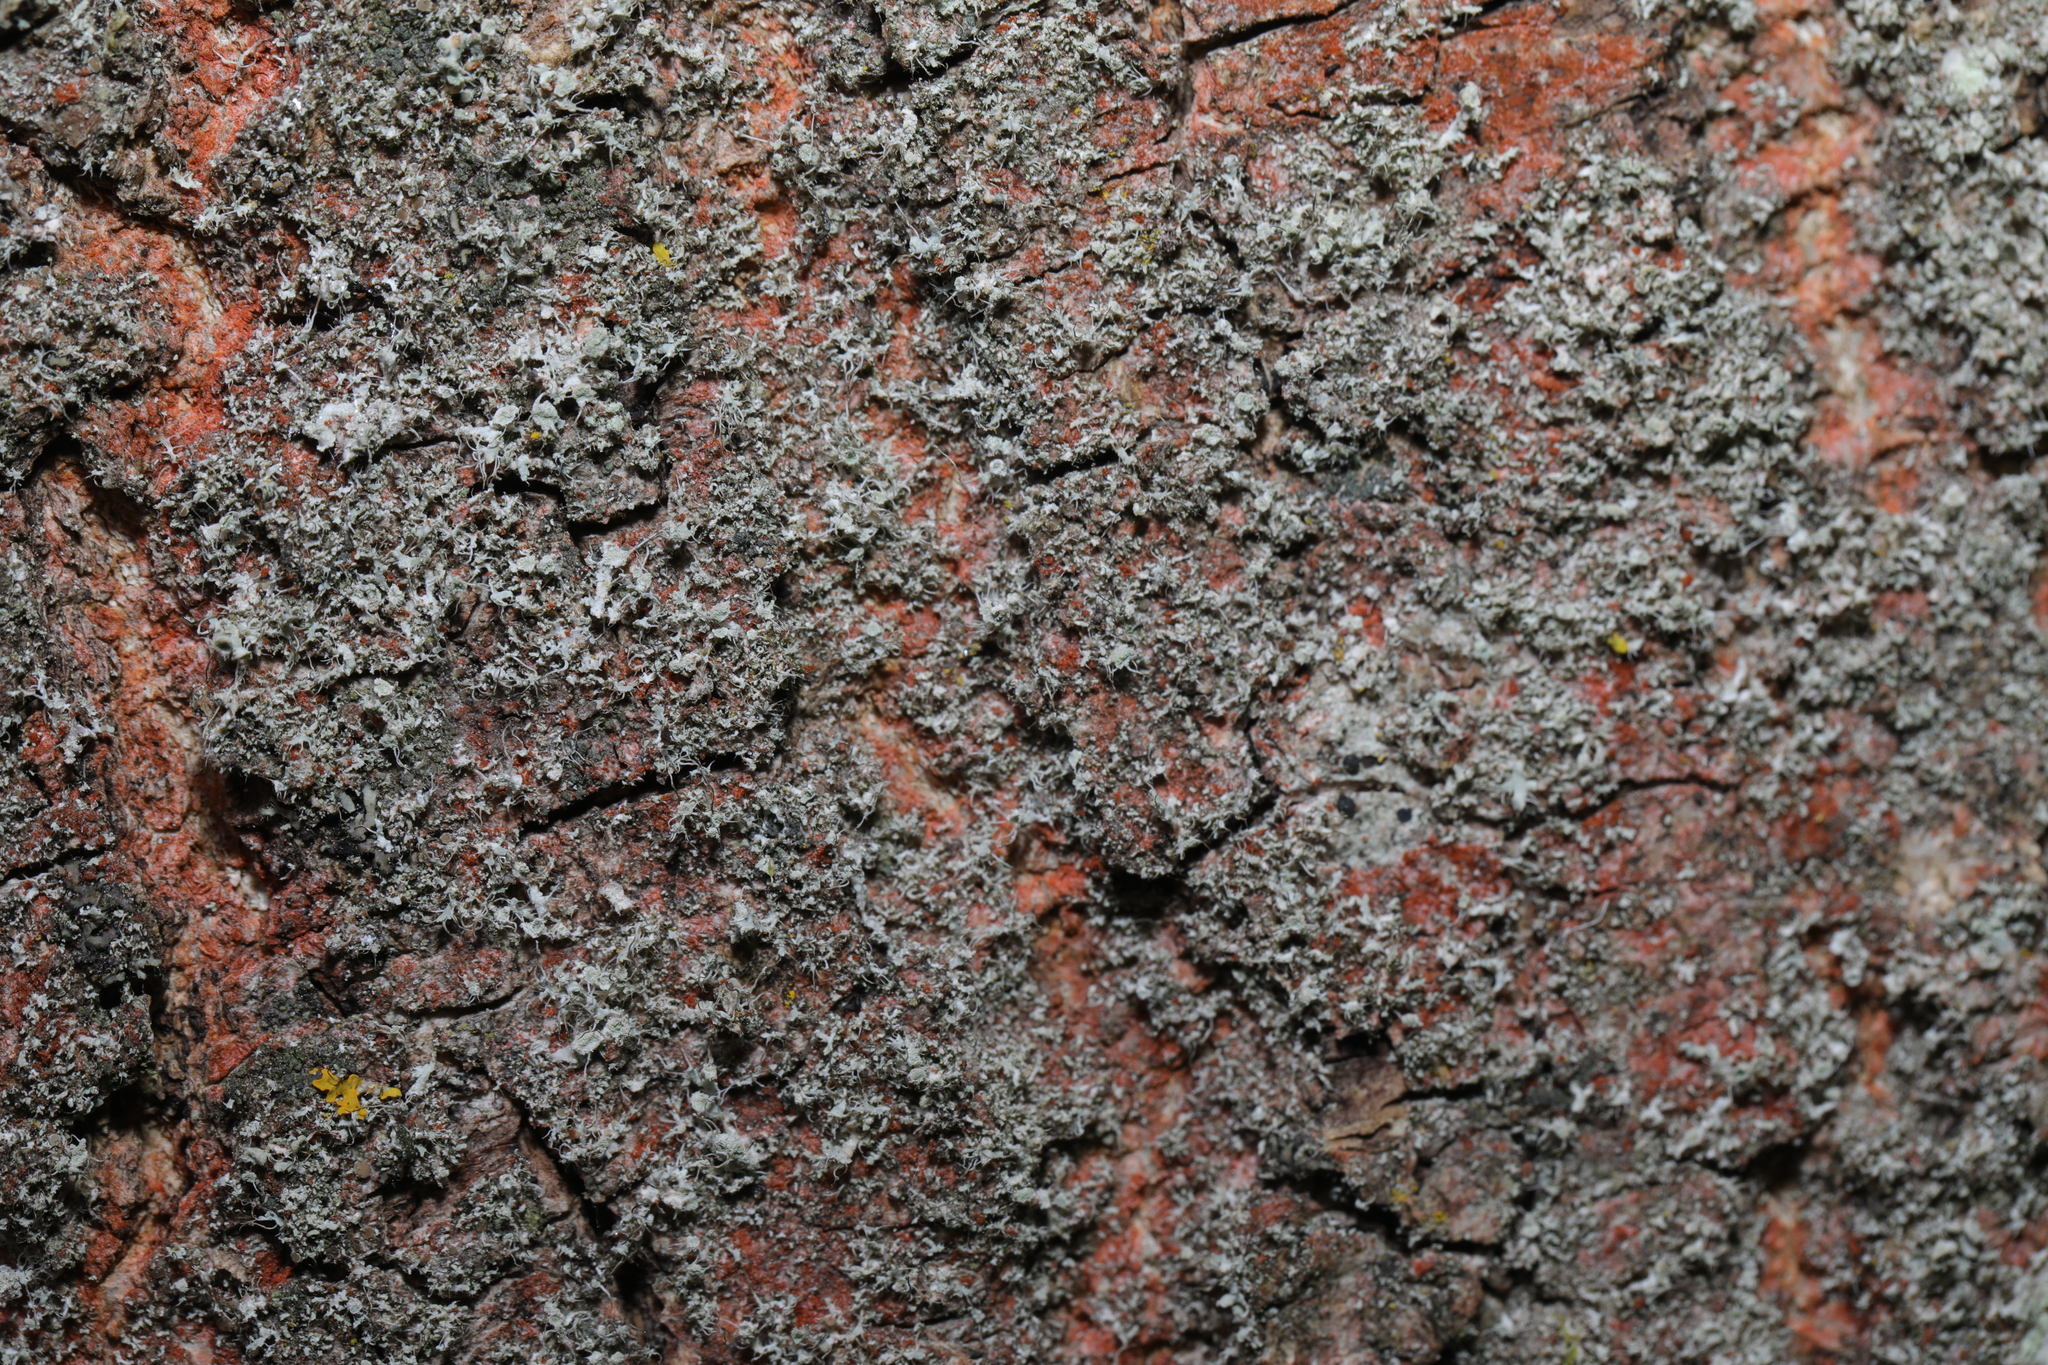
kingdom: Fungi
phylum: Ascomycota
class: Lecanoromycetes
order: Caliciales
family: Physciaceae
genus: Physcia
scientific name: Physcia adscendens
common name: Hooded rosette lichen
